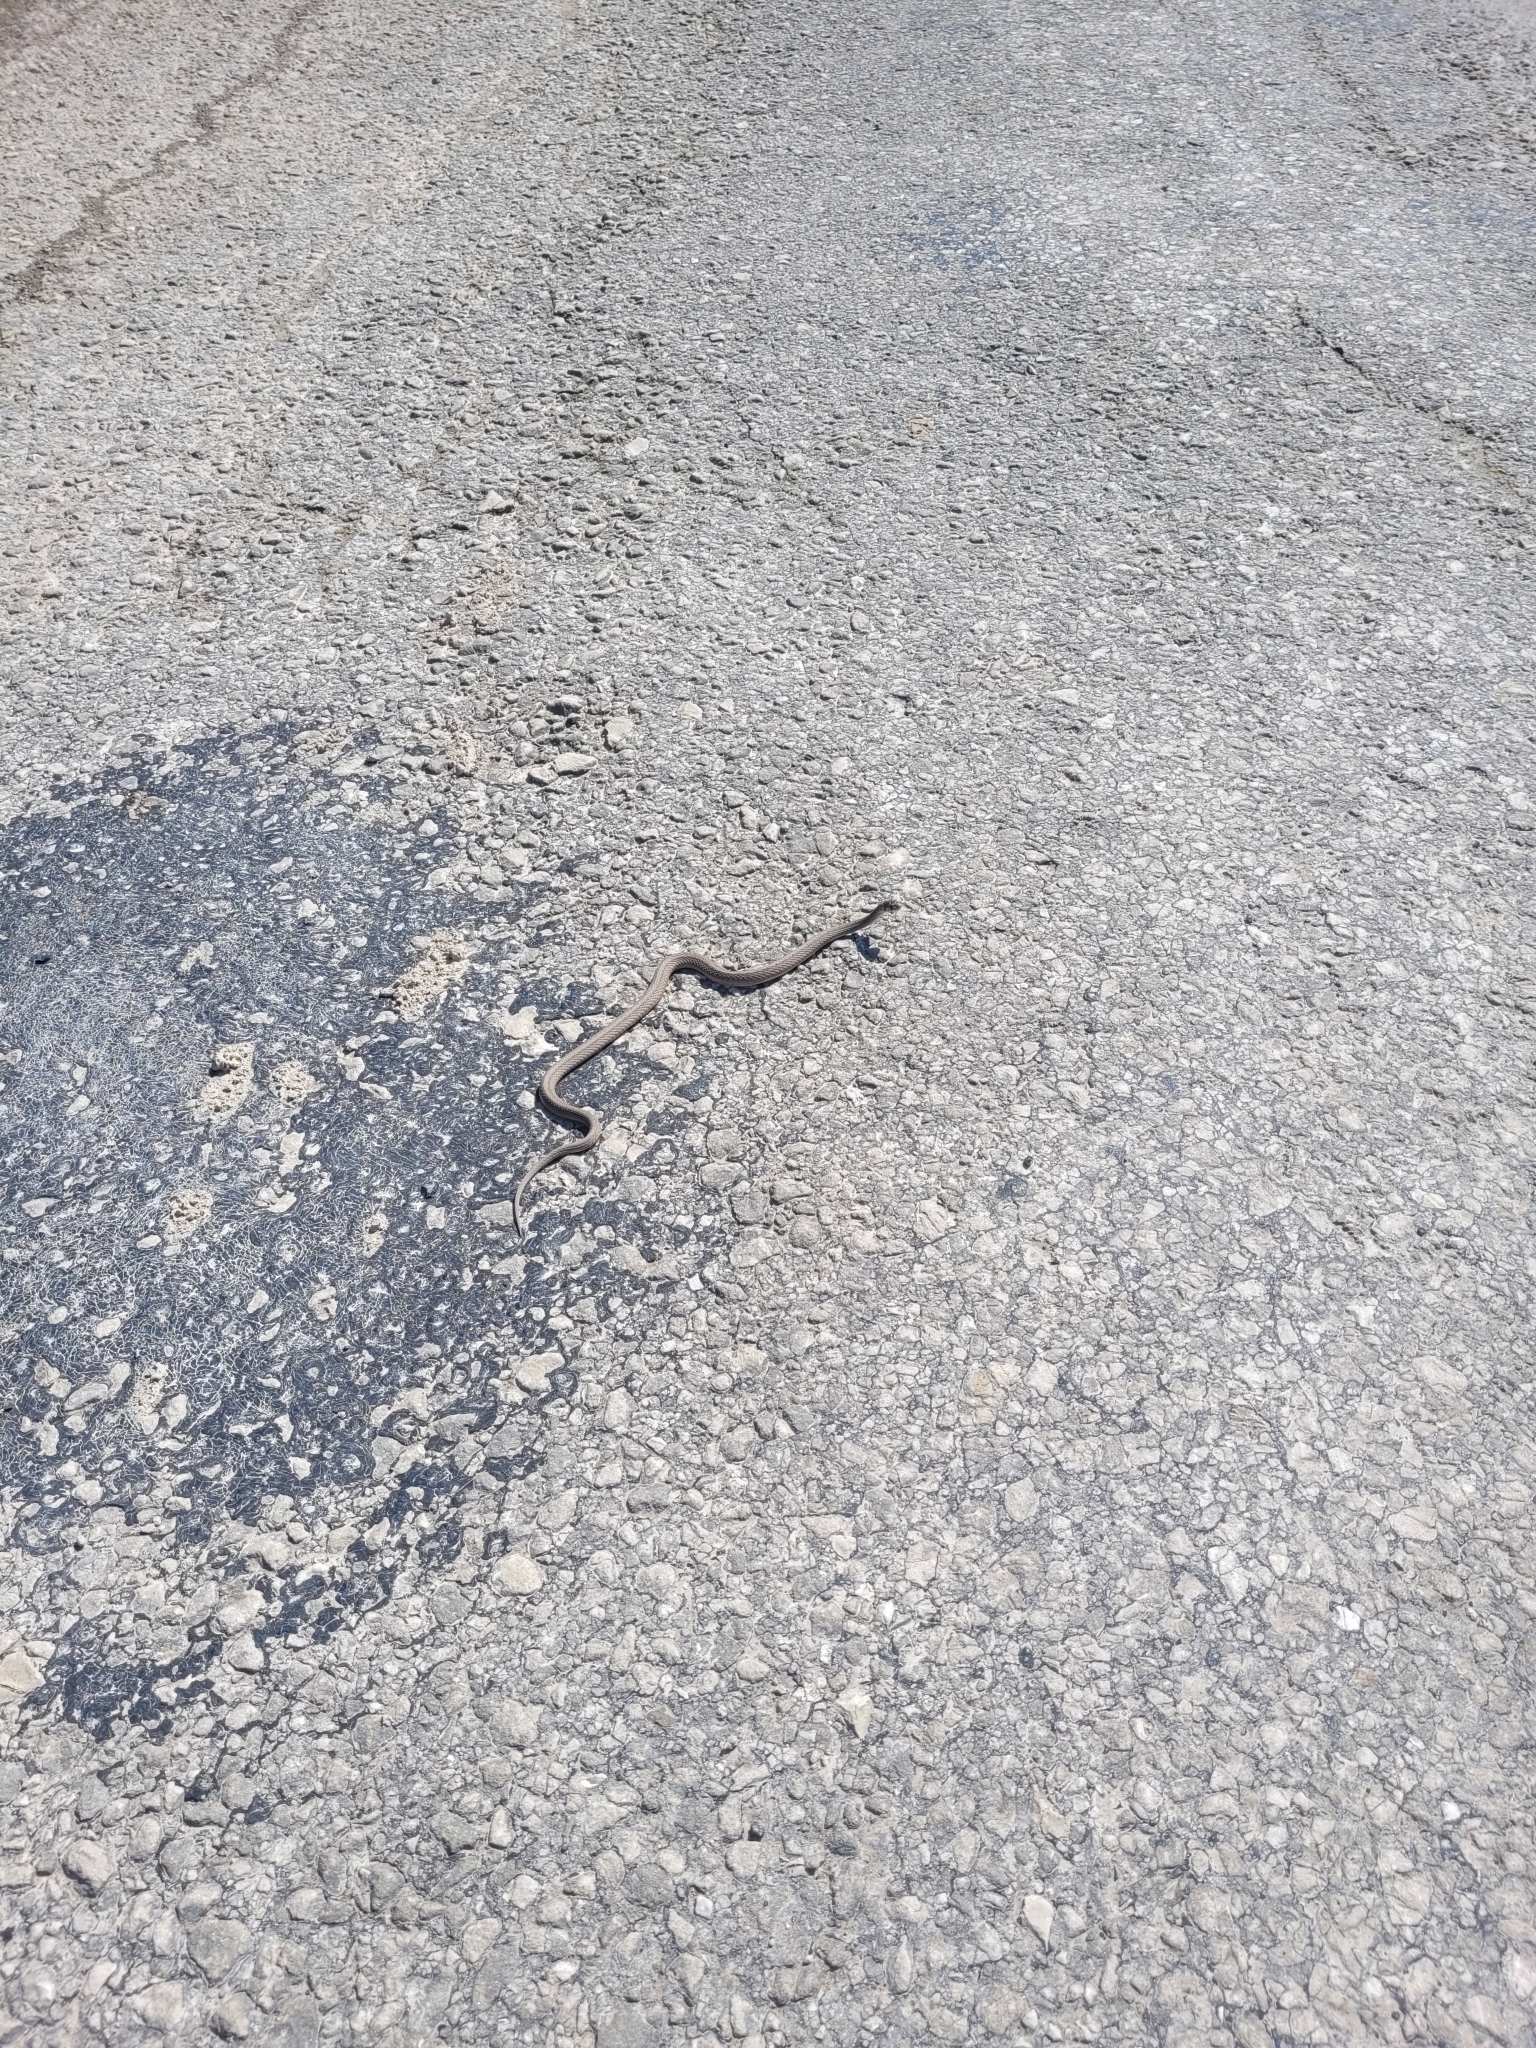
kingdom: Animalia
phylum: Chordata
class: Squamata
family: Colubridae
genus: Storeria
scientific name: Storeria dekayi
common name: (dekay’s) brown snake
